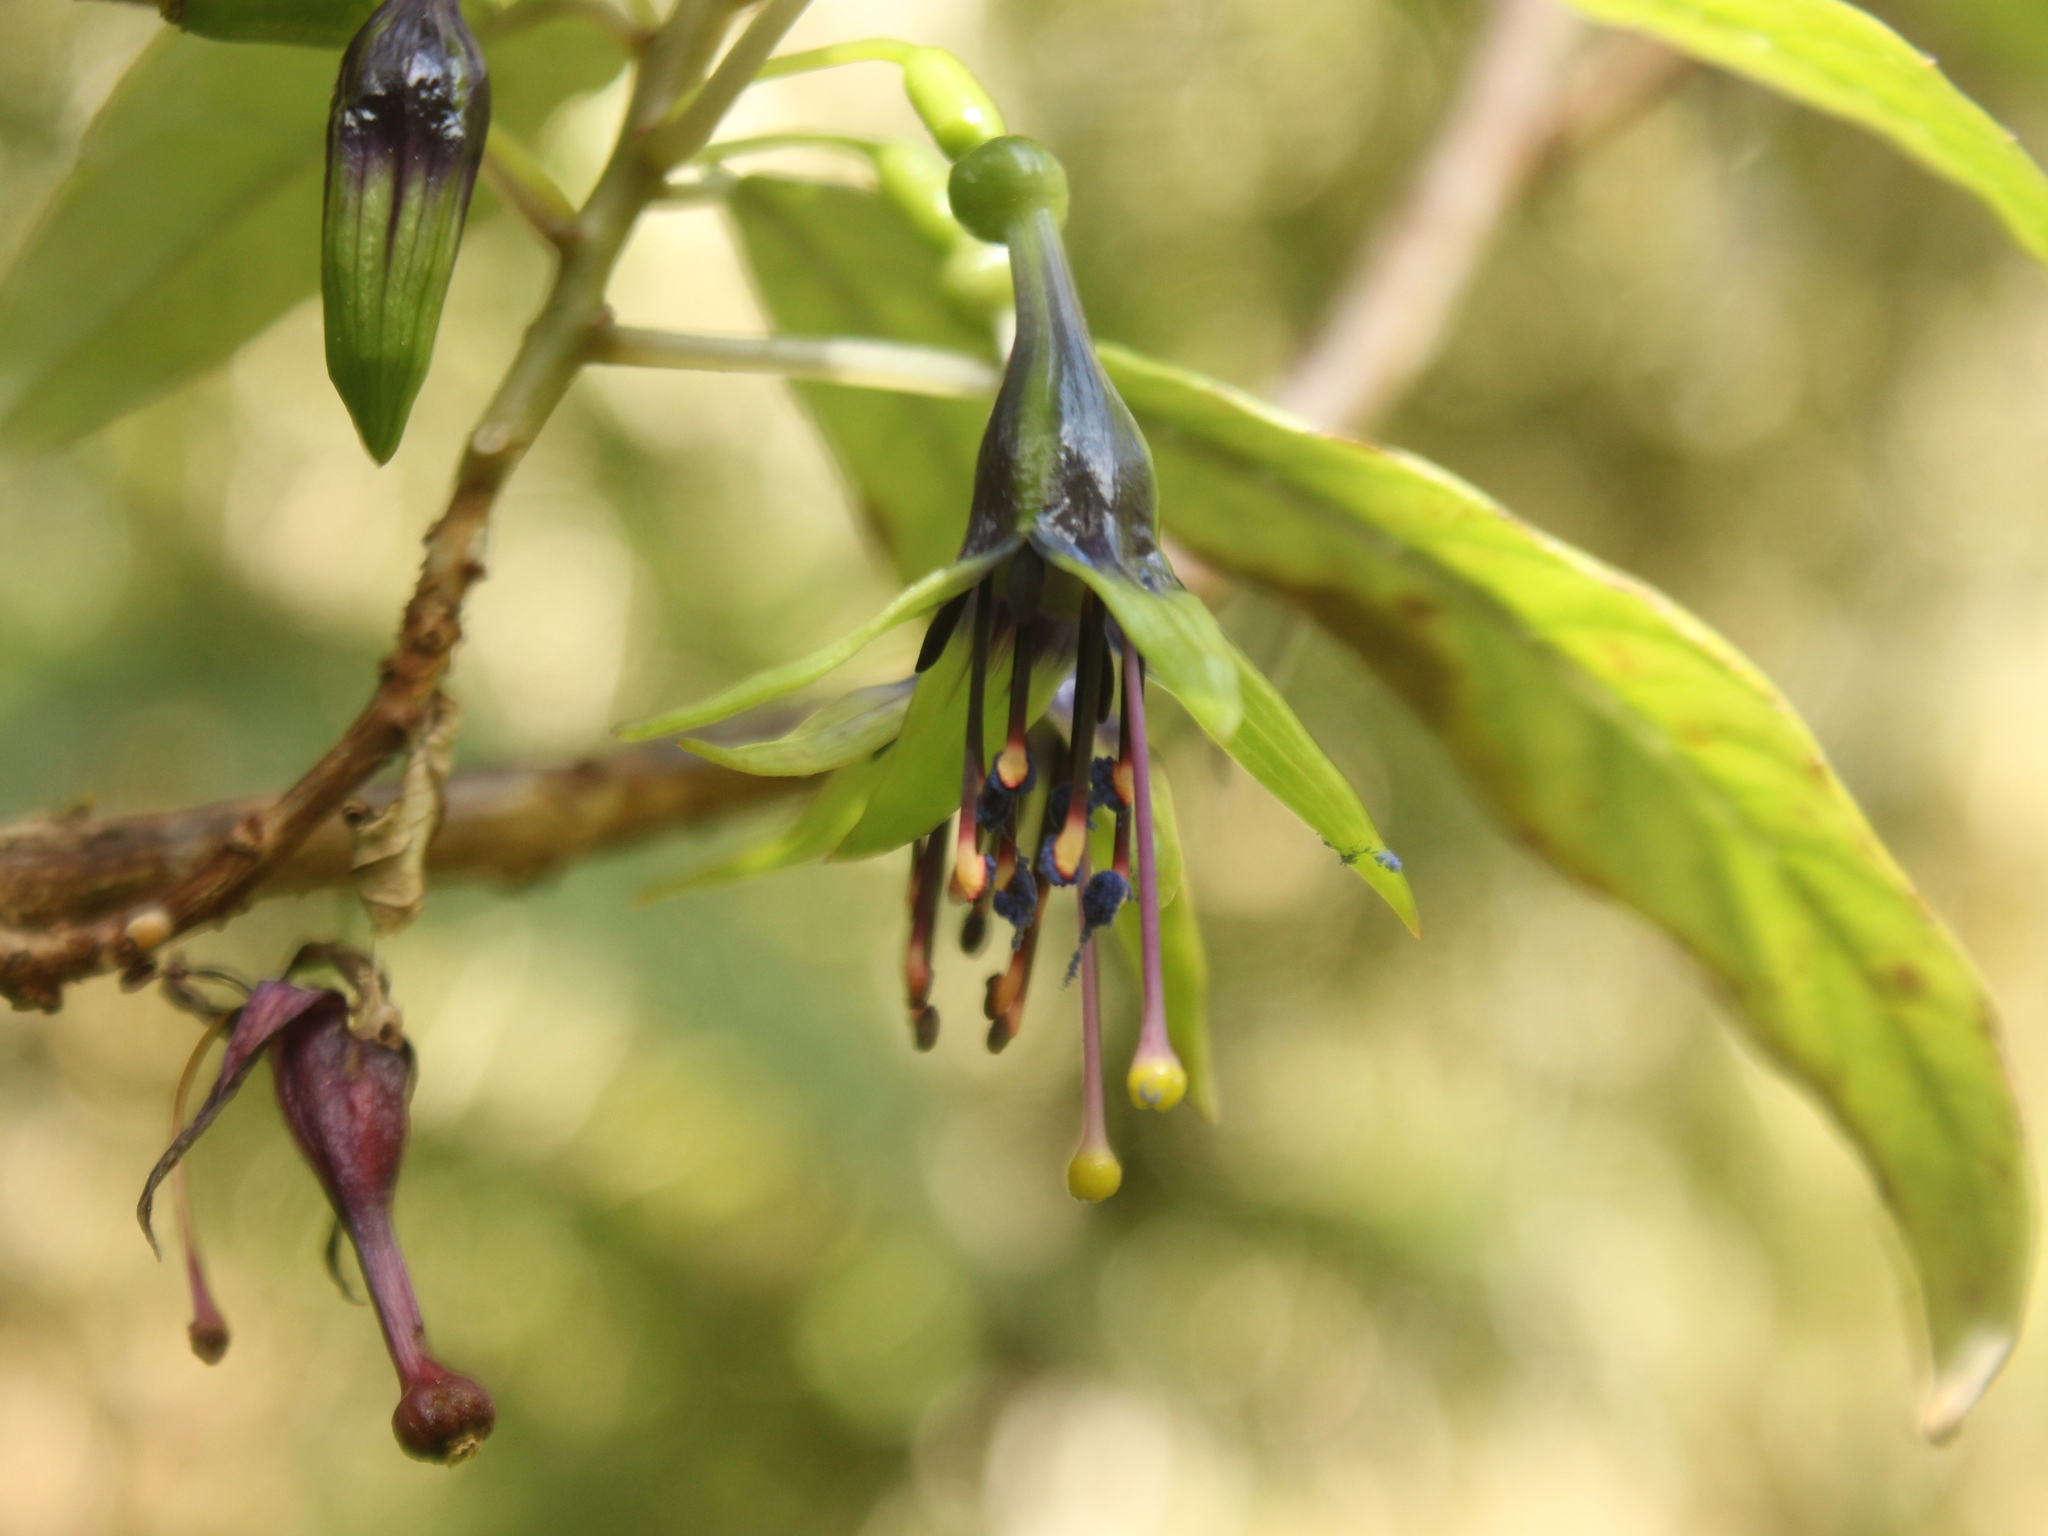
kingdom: Plantae
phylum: Tracheophyta
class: Magnoliopsida
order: Myrtales
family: Onagraceae
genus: Fuchsia
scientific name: Fuchsia excorticata
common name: Tree fuchsia
